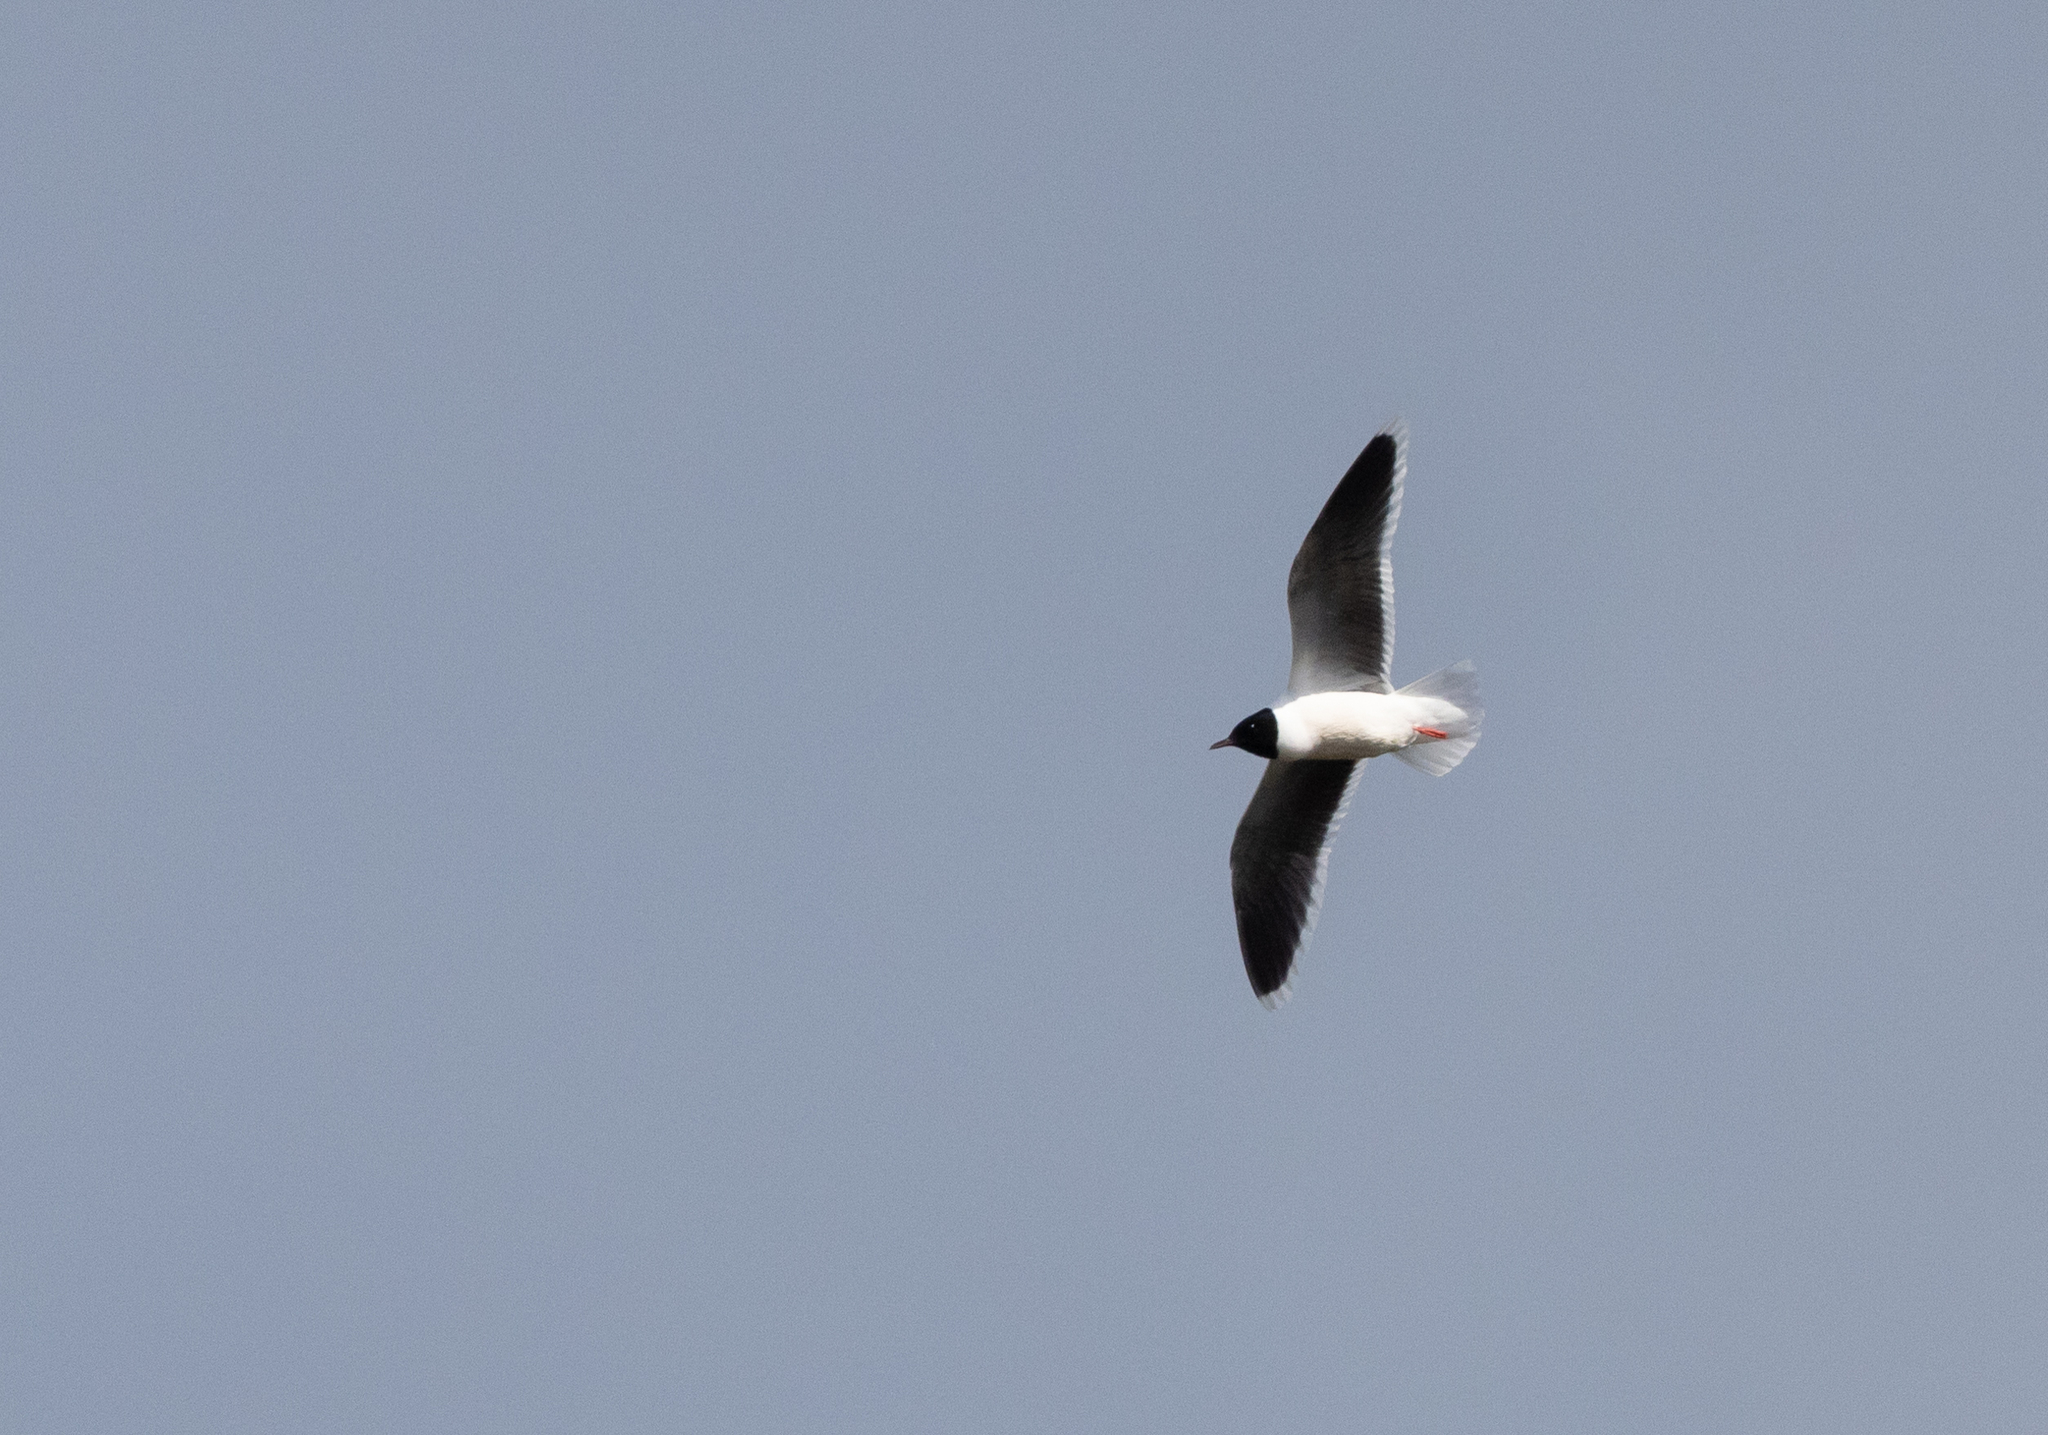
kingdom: Animalia
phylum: Chordata
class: Aves
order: Charadriiformes
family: Laridae
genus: Hydrocoloeus
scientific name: Hydrocoloeus minutus
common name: Little gull
